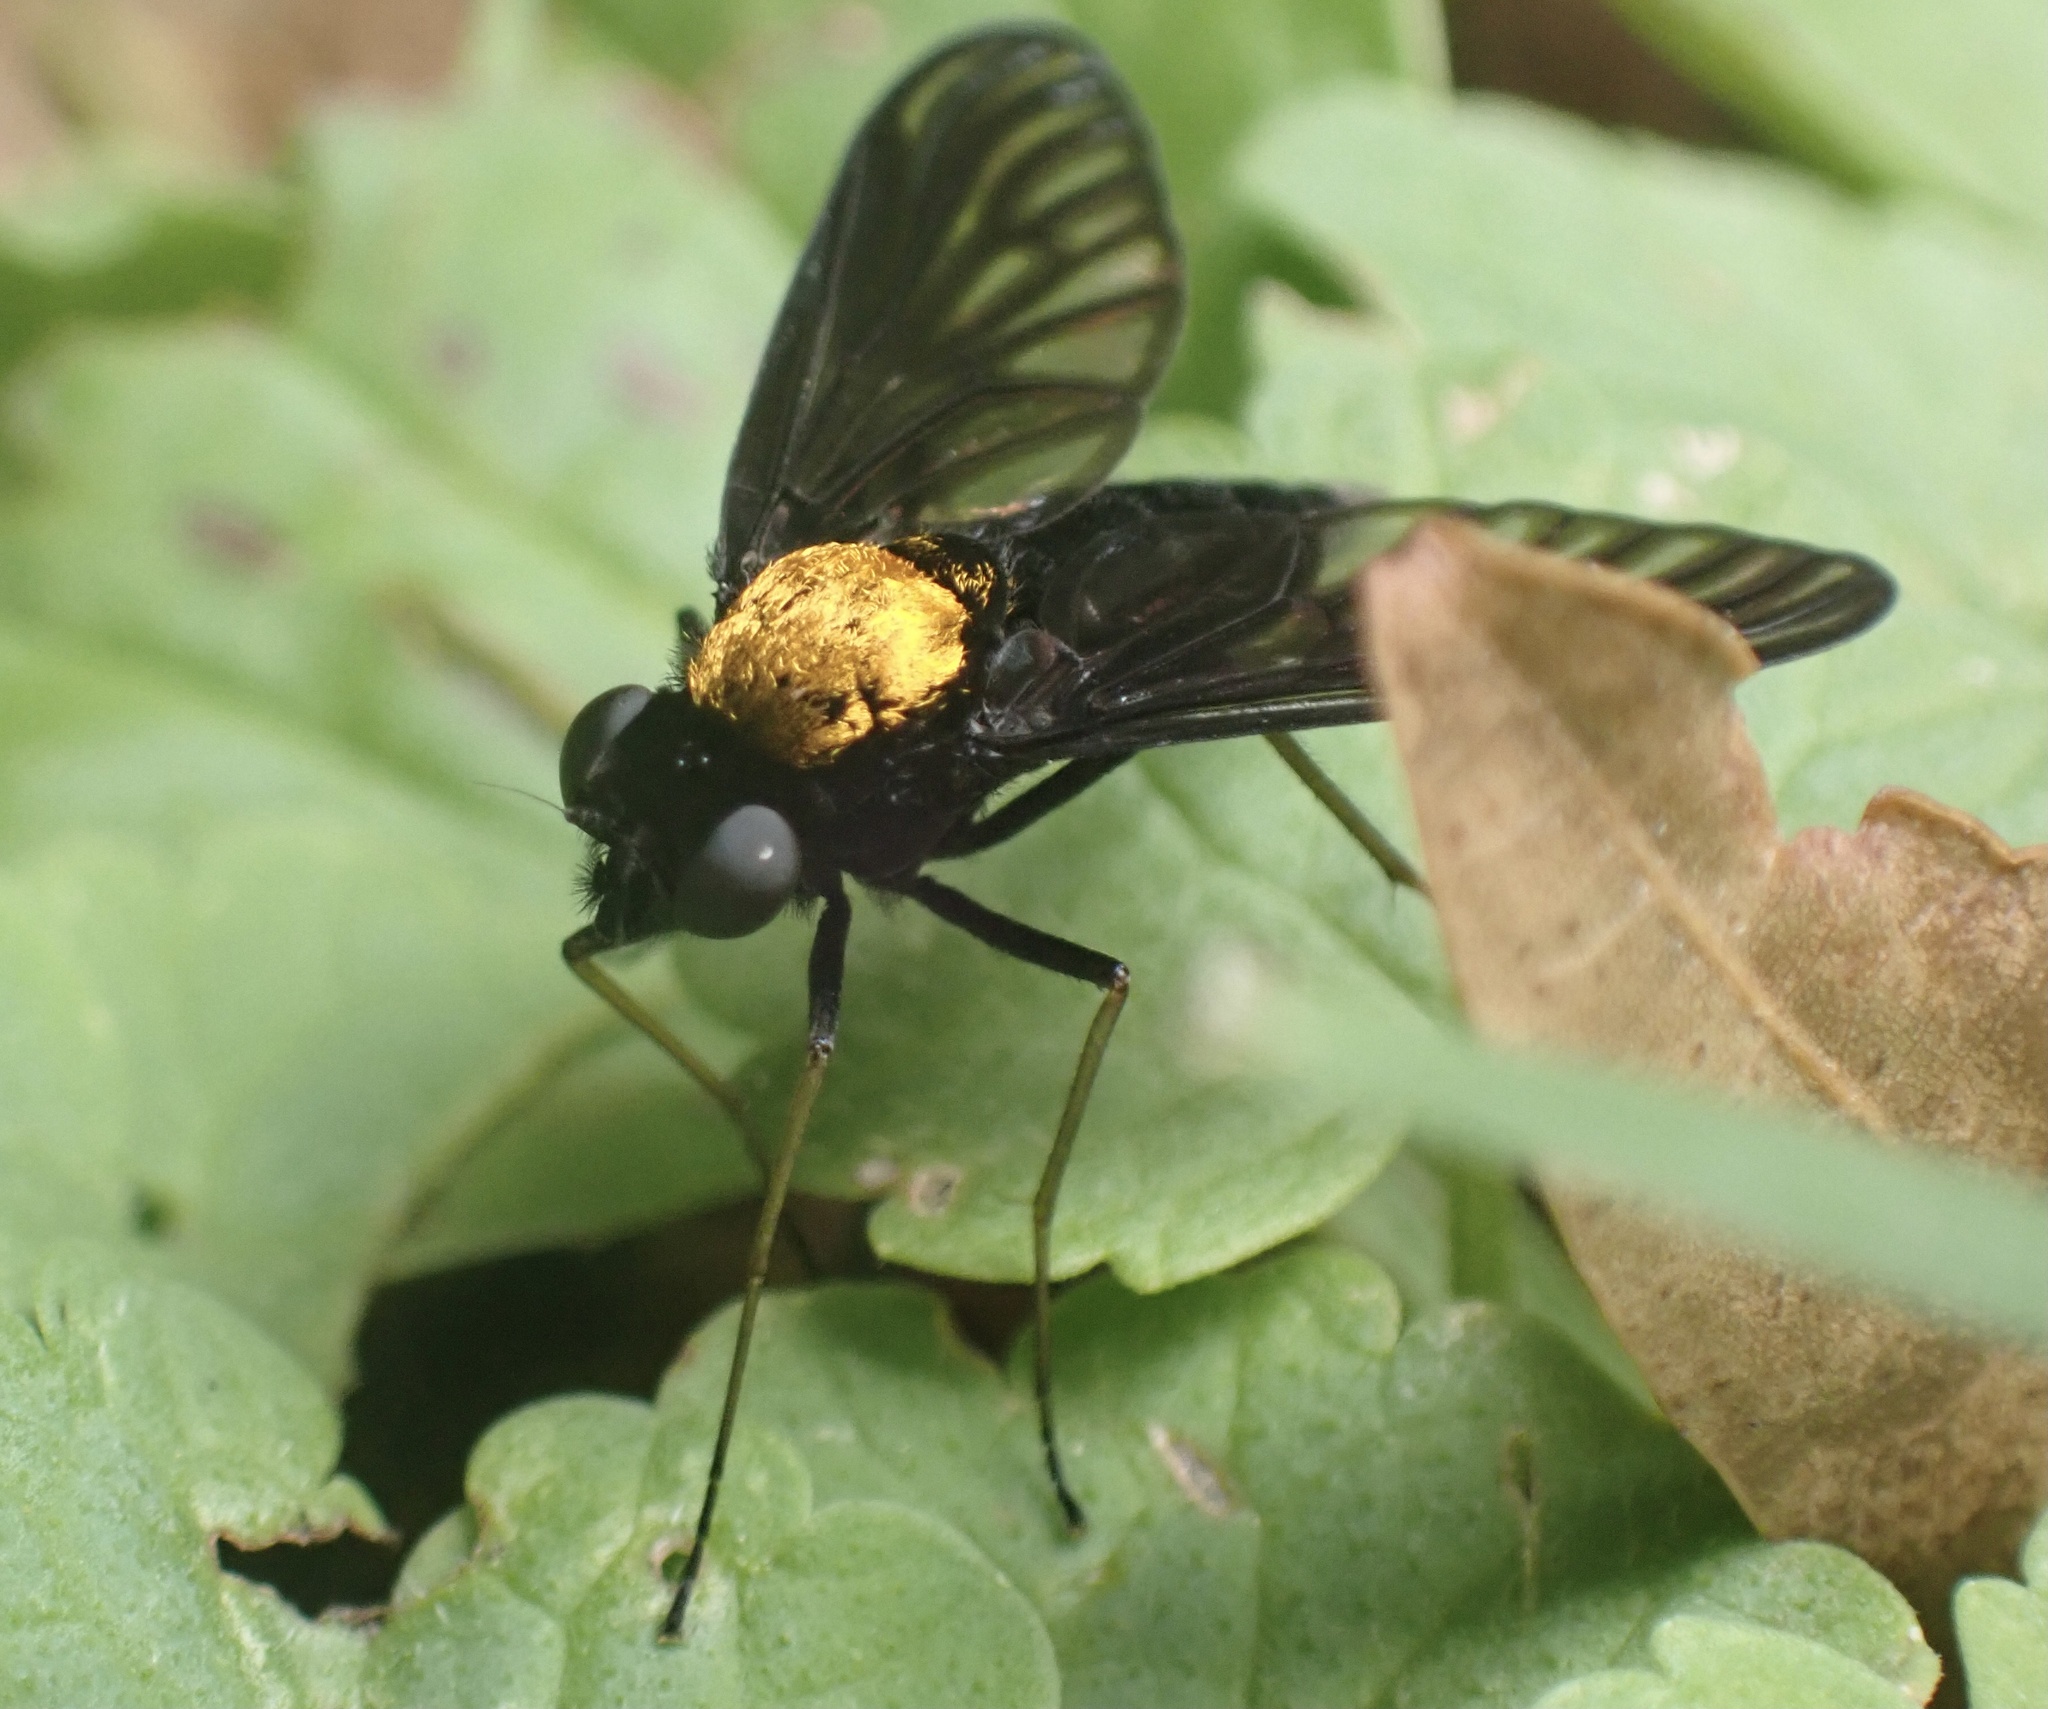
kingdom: Animalia
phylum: Arthropoda
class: Insecta
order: Diptera
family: Rhagionidae
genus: Chrysopilus
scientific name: Chrysopilus davisi
